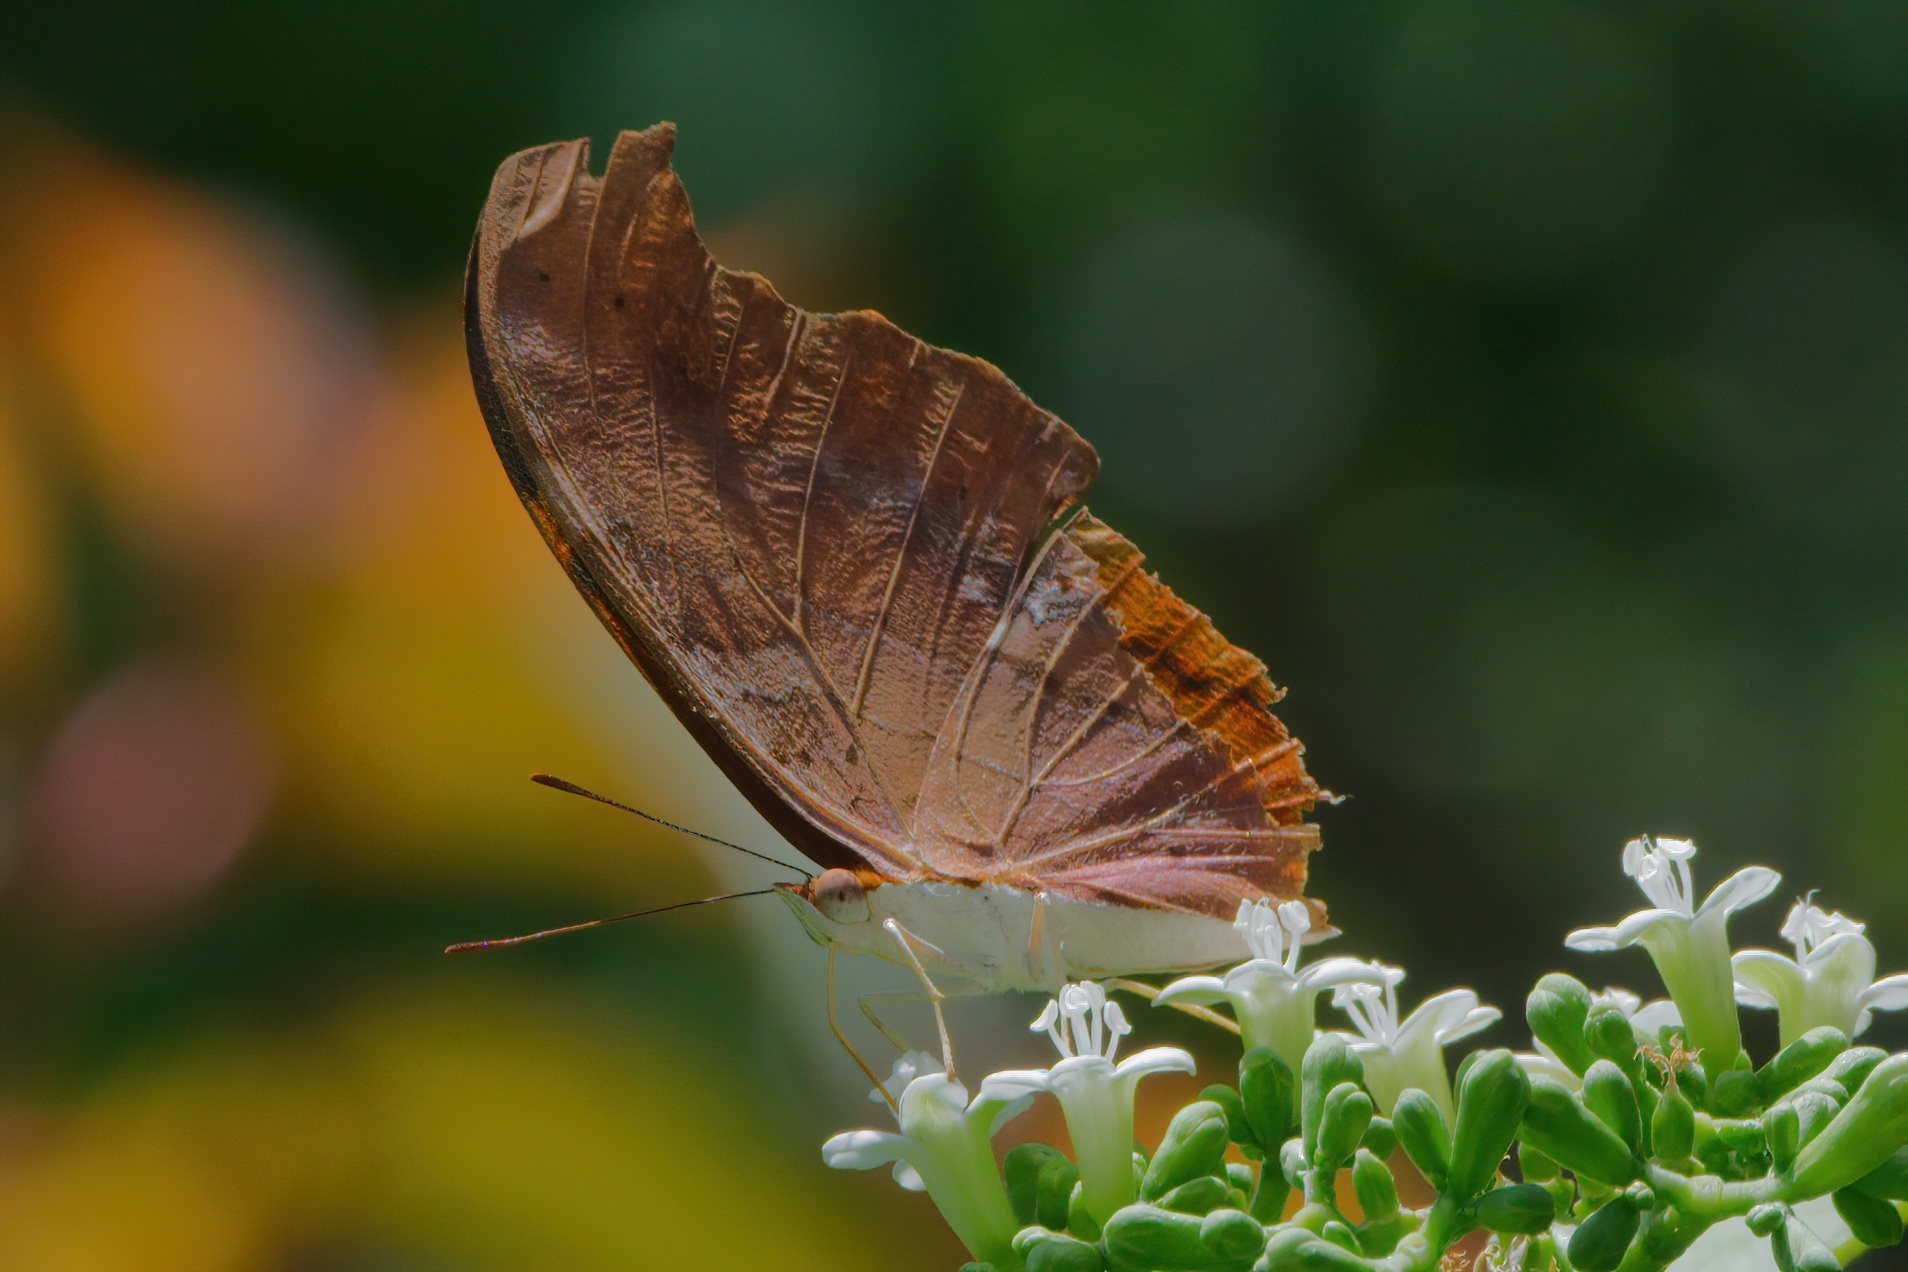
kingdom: Animalia
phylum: Arthropoda
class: Insecta
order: Lepidoptera
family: Nymphalidae
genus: Marpesia
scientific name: Marpesia petreus
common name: Red dagger wing
